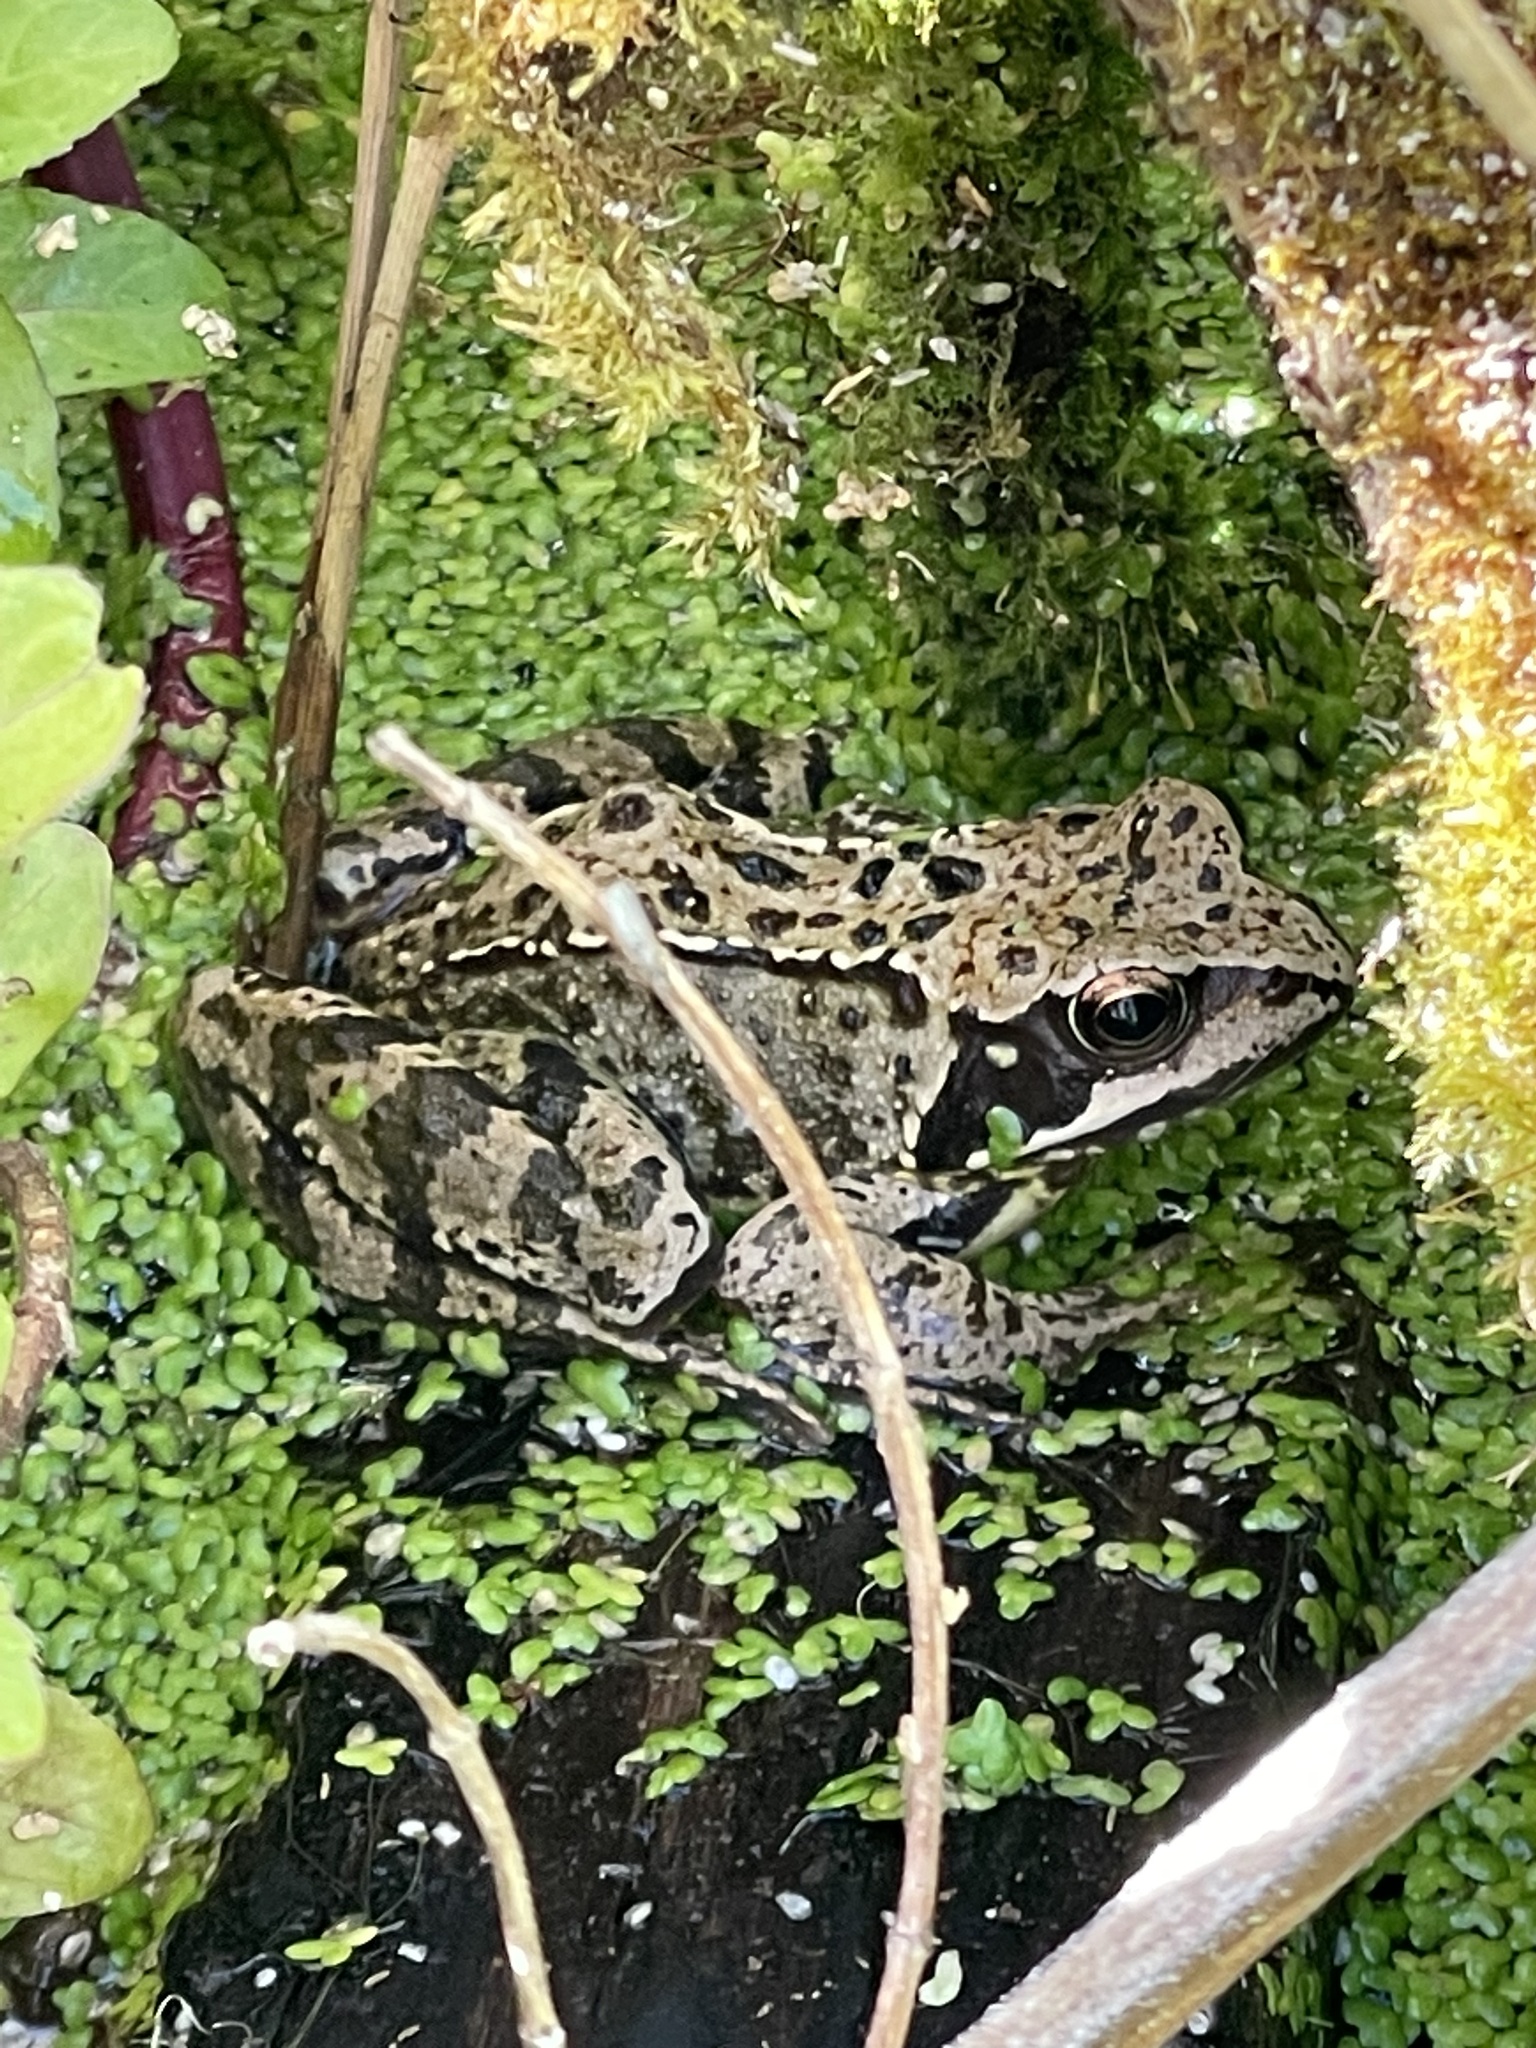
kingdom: Animalia
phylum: Chordata
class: Amphibia
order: Anura
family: Ranidae
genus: Rana
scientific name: Rana temporaria
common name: Common frog
